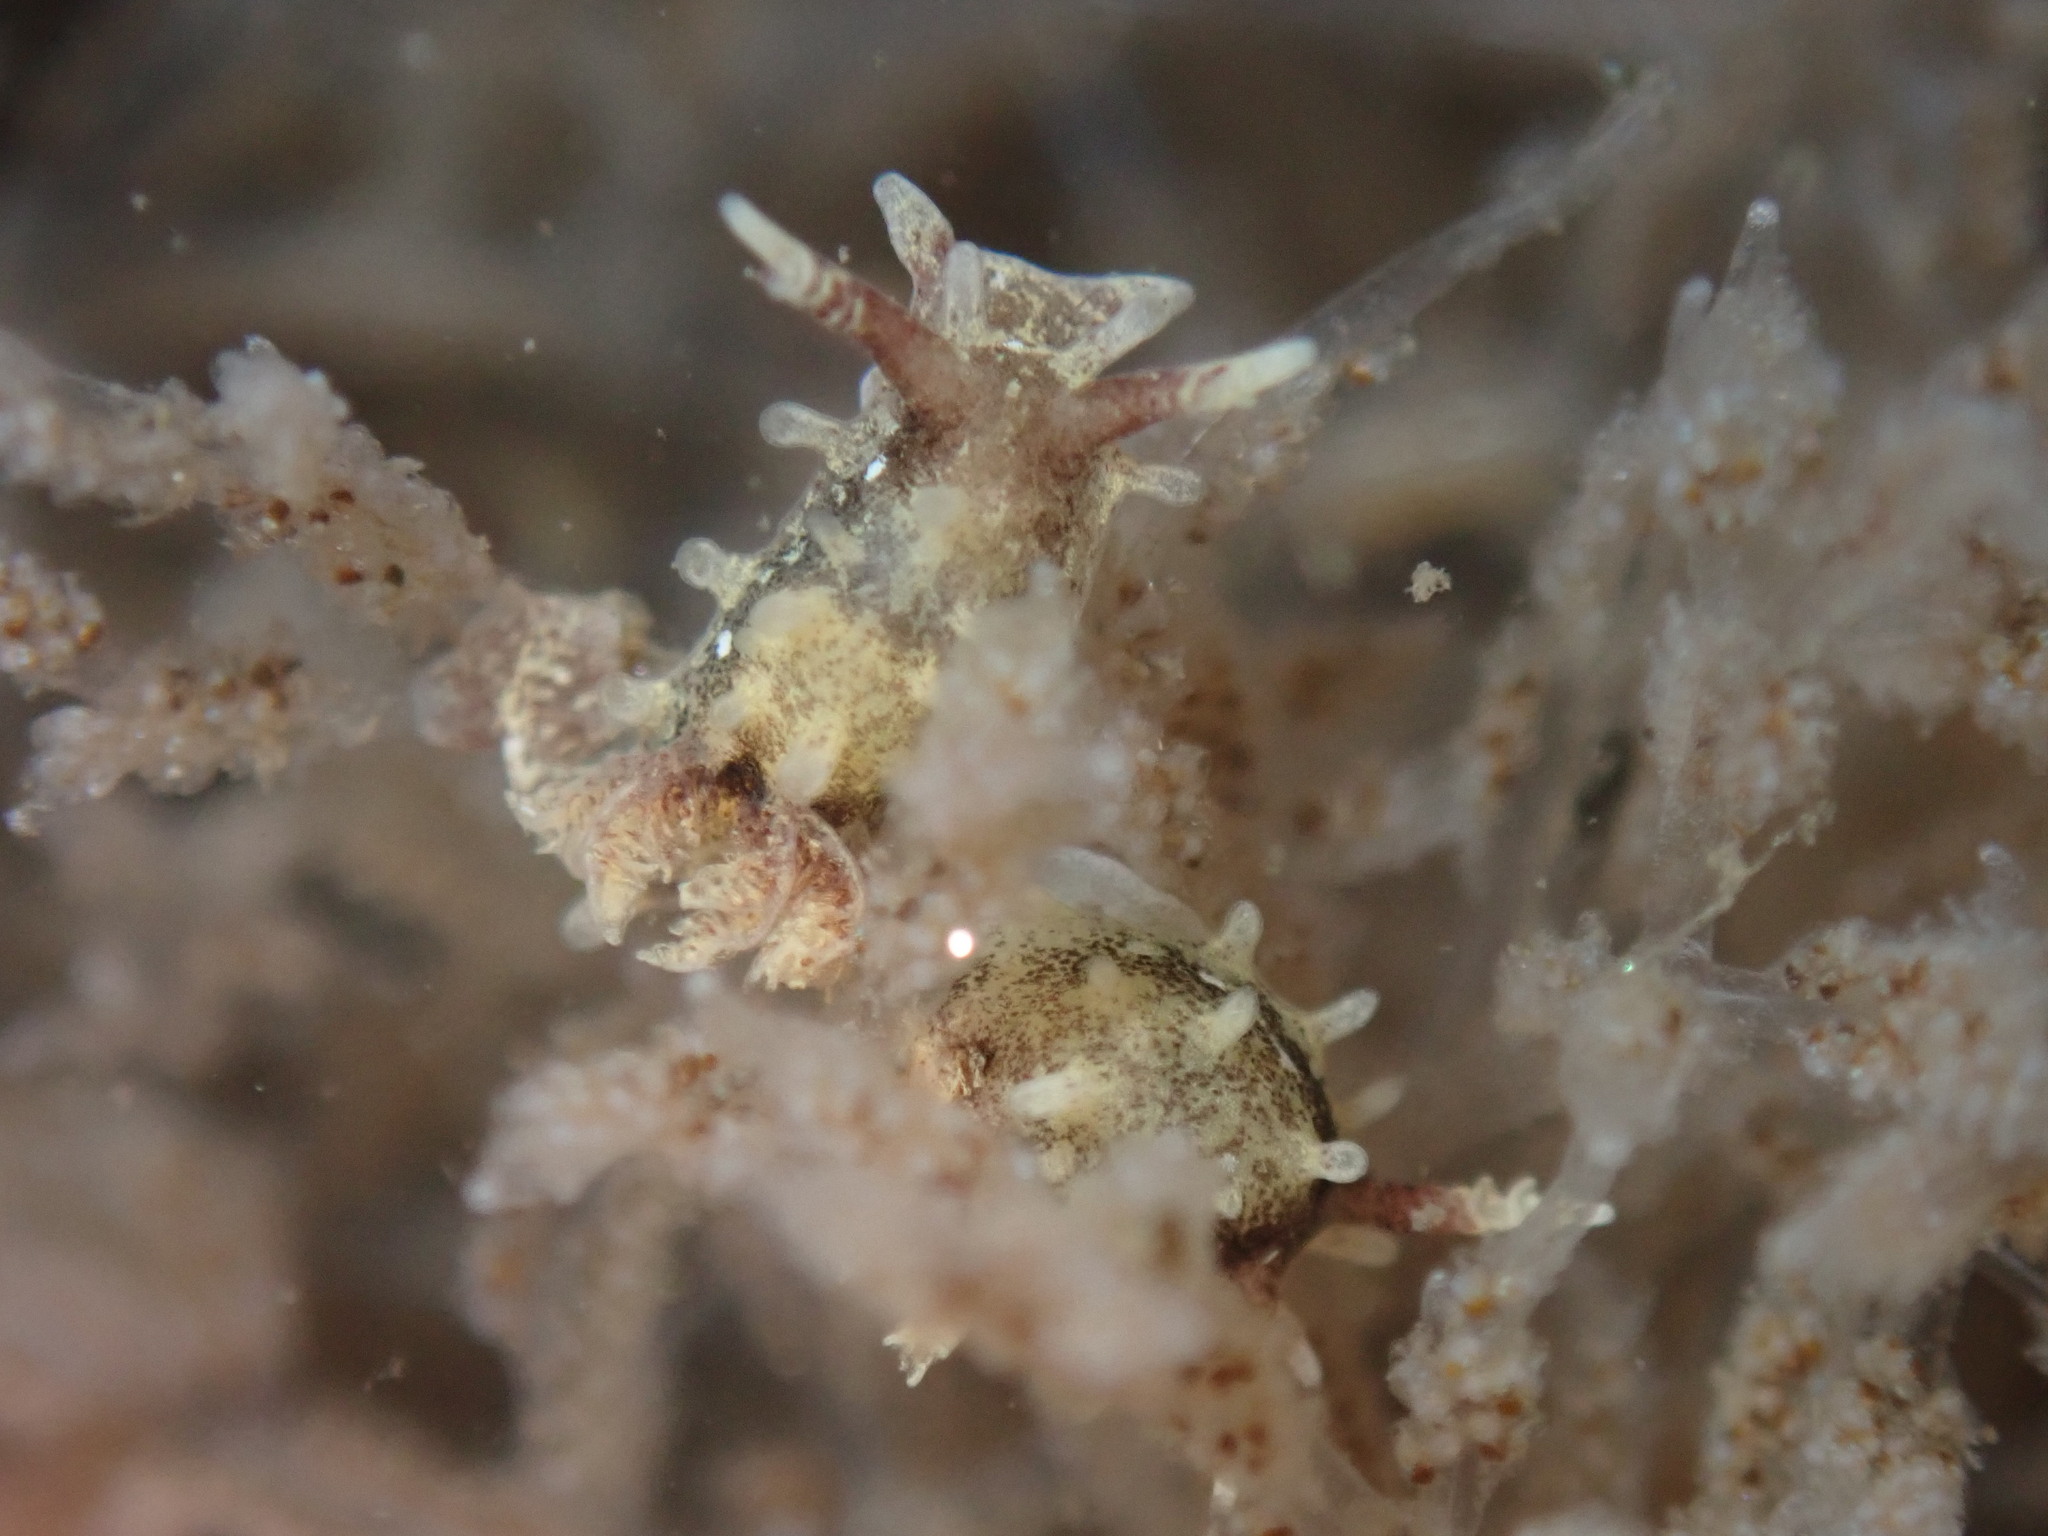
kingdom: Animalia
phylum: Mollusca
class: Gastropoda
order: Nudibranchia
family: Goniodorididae
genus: Okenia
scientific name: Okenia
